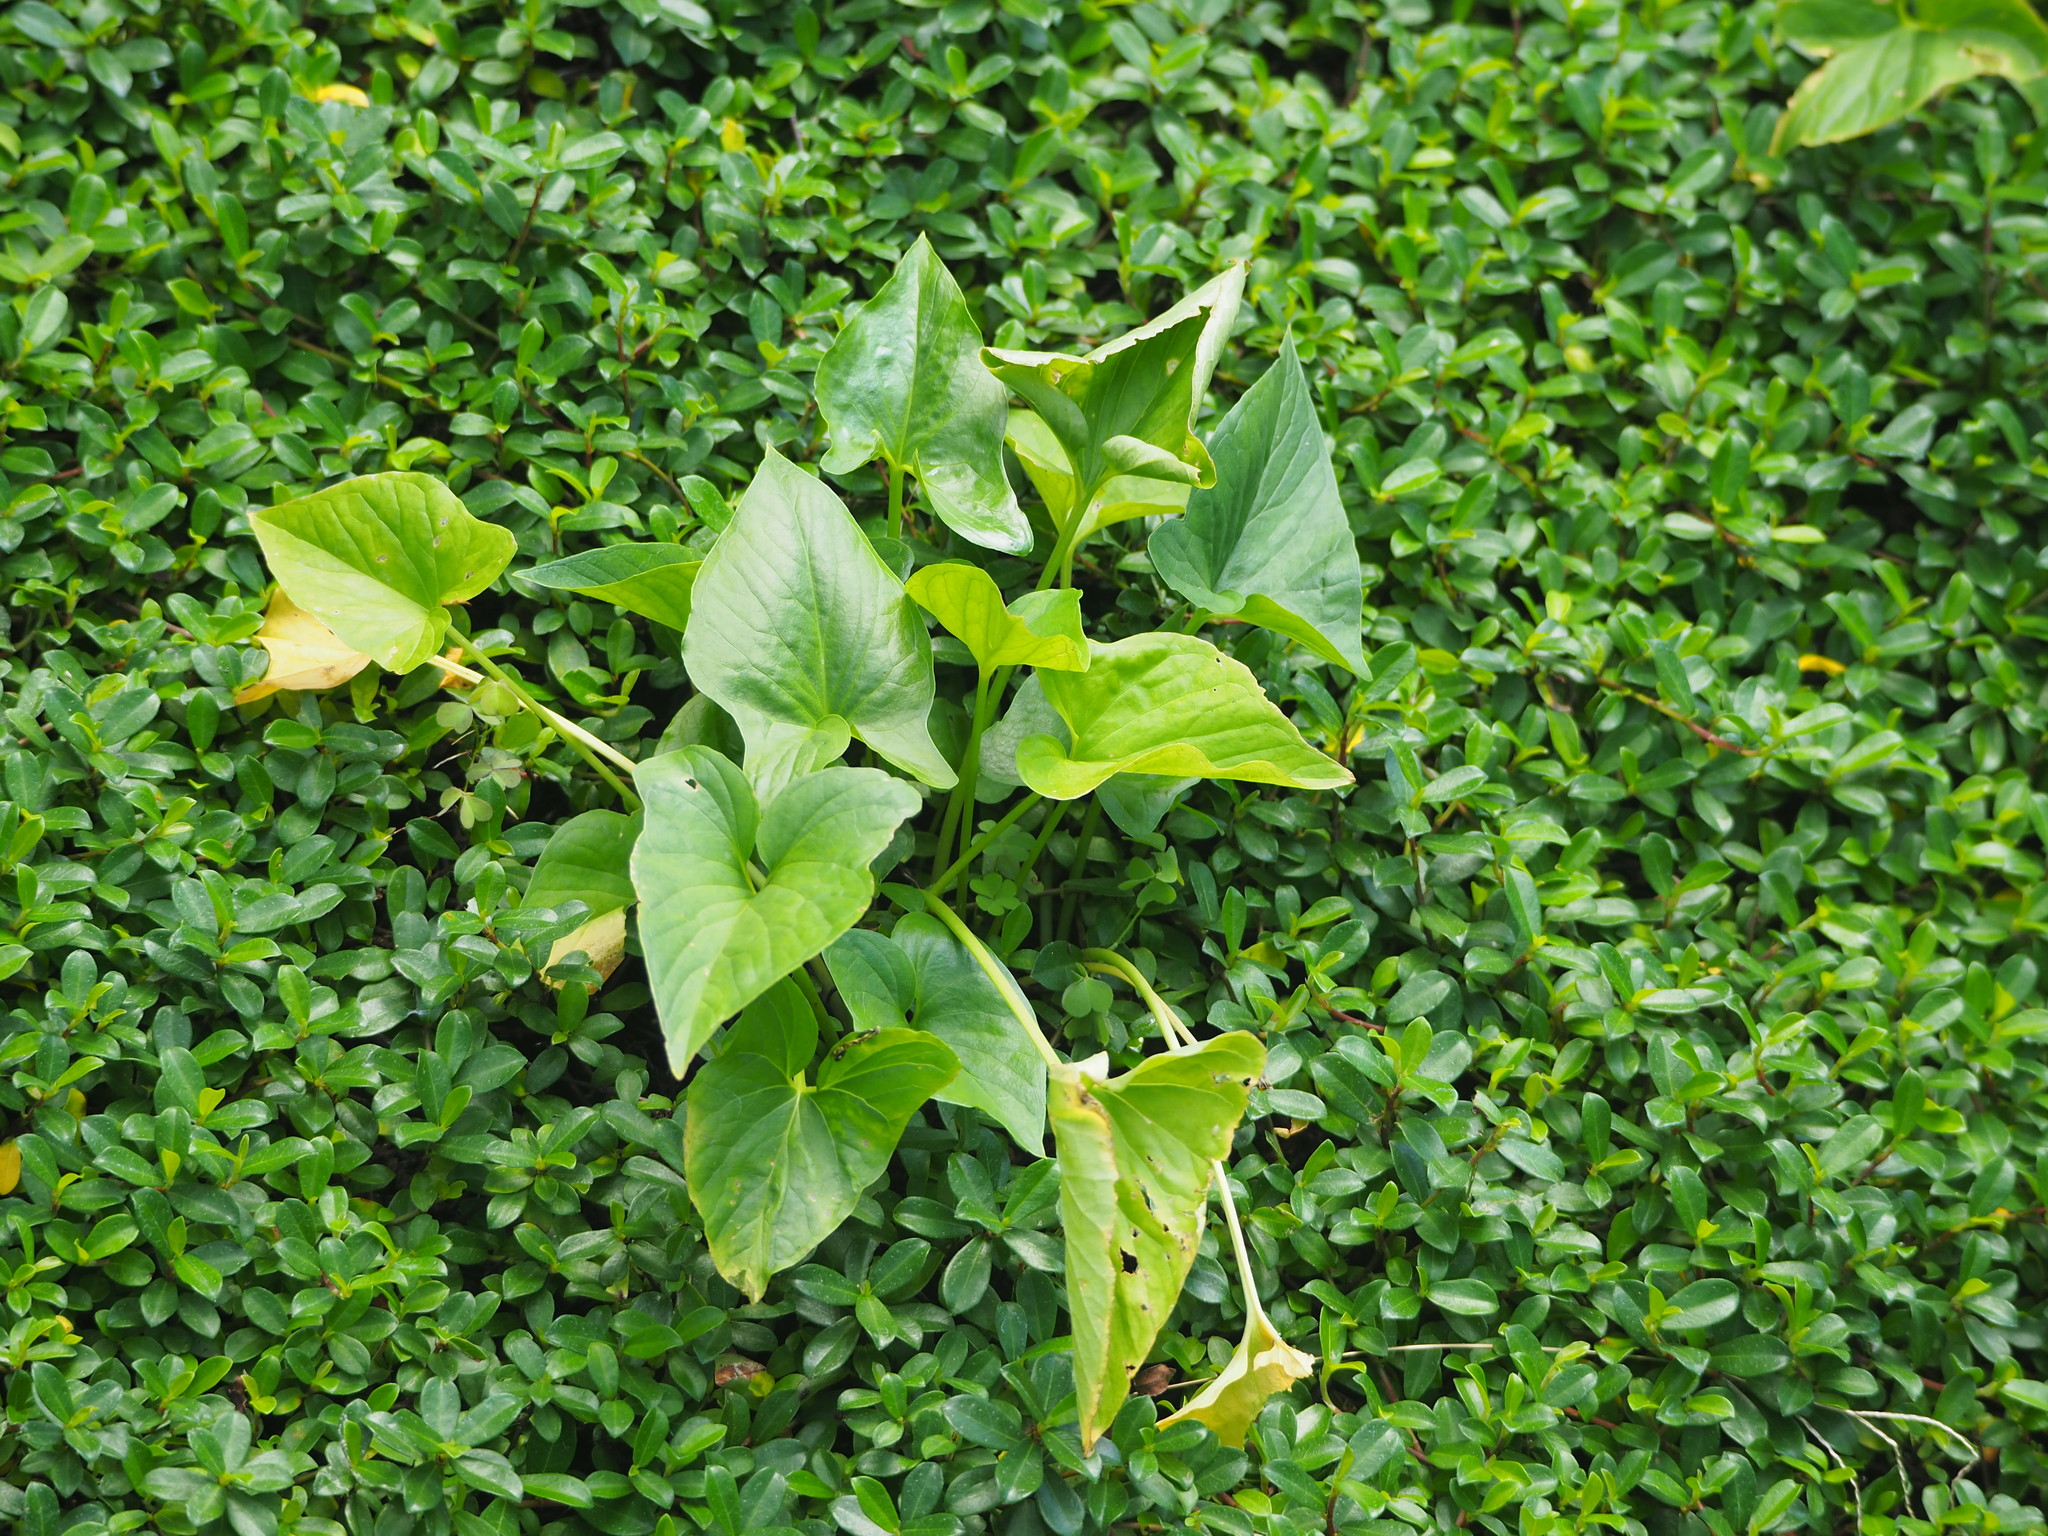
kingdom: Plantae
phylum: Tracheophyta
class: Liliopsida
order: Alismatales
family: Araceae
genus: Typhonium
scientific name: Typhonium blumei
